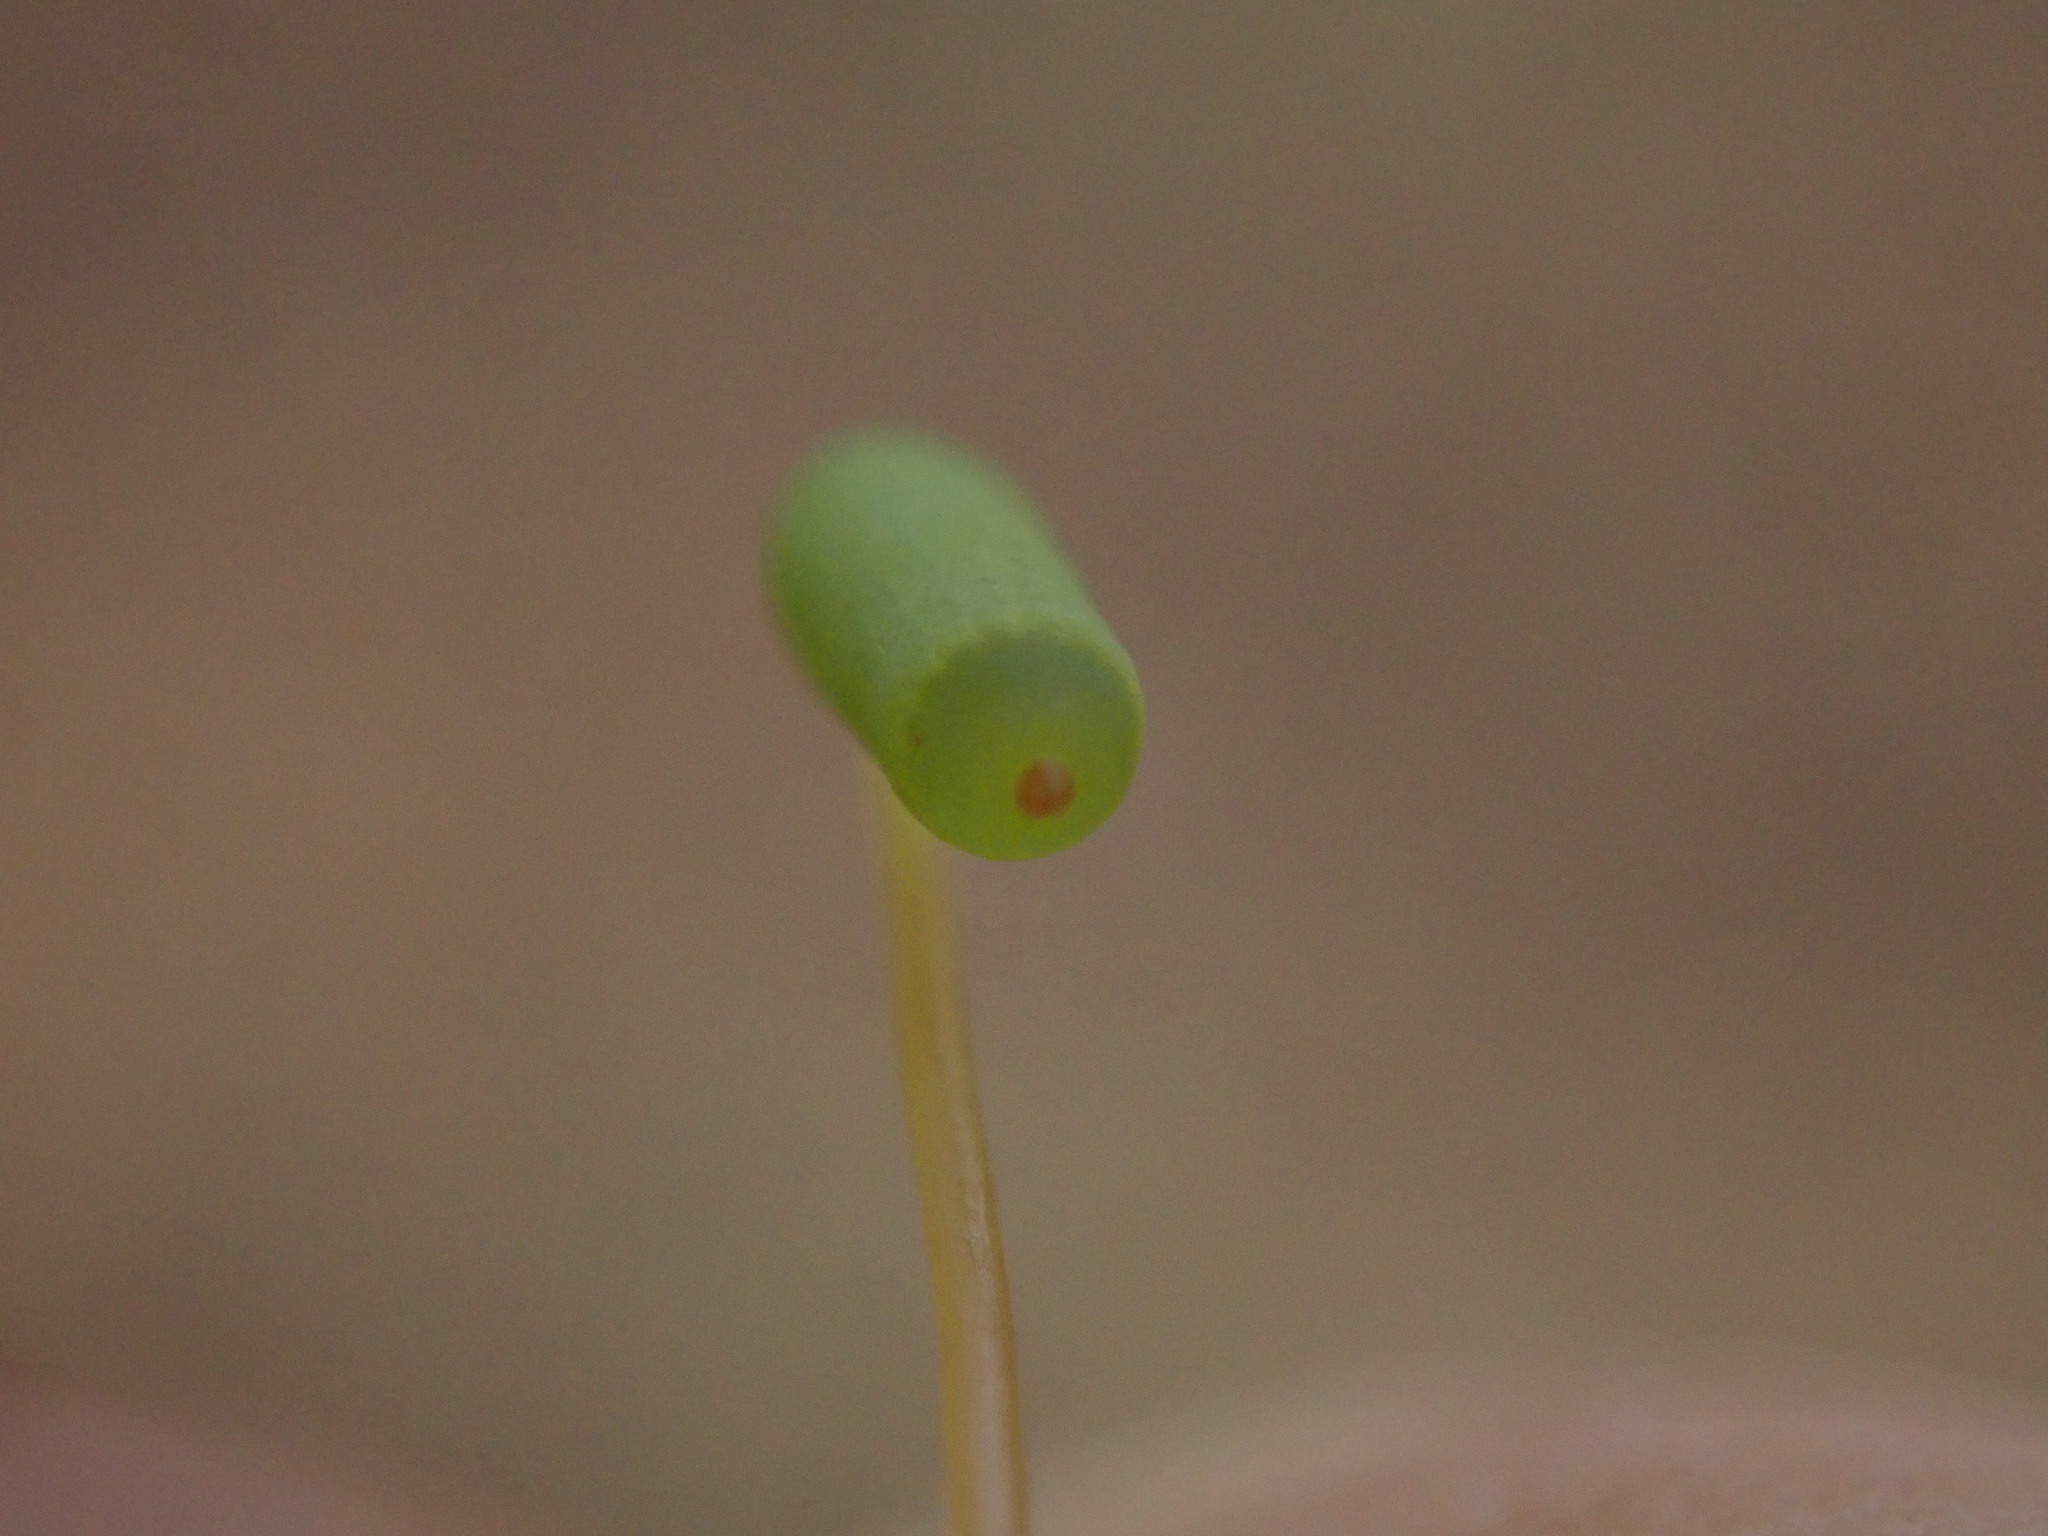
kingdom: Plantae
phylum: Bryophyta
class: Bryopsida
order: Bryales
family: Mniaceae
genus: Plagiomnium
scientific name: Plagiomnium insigne
